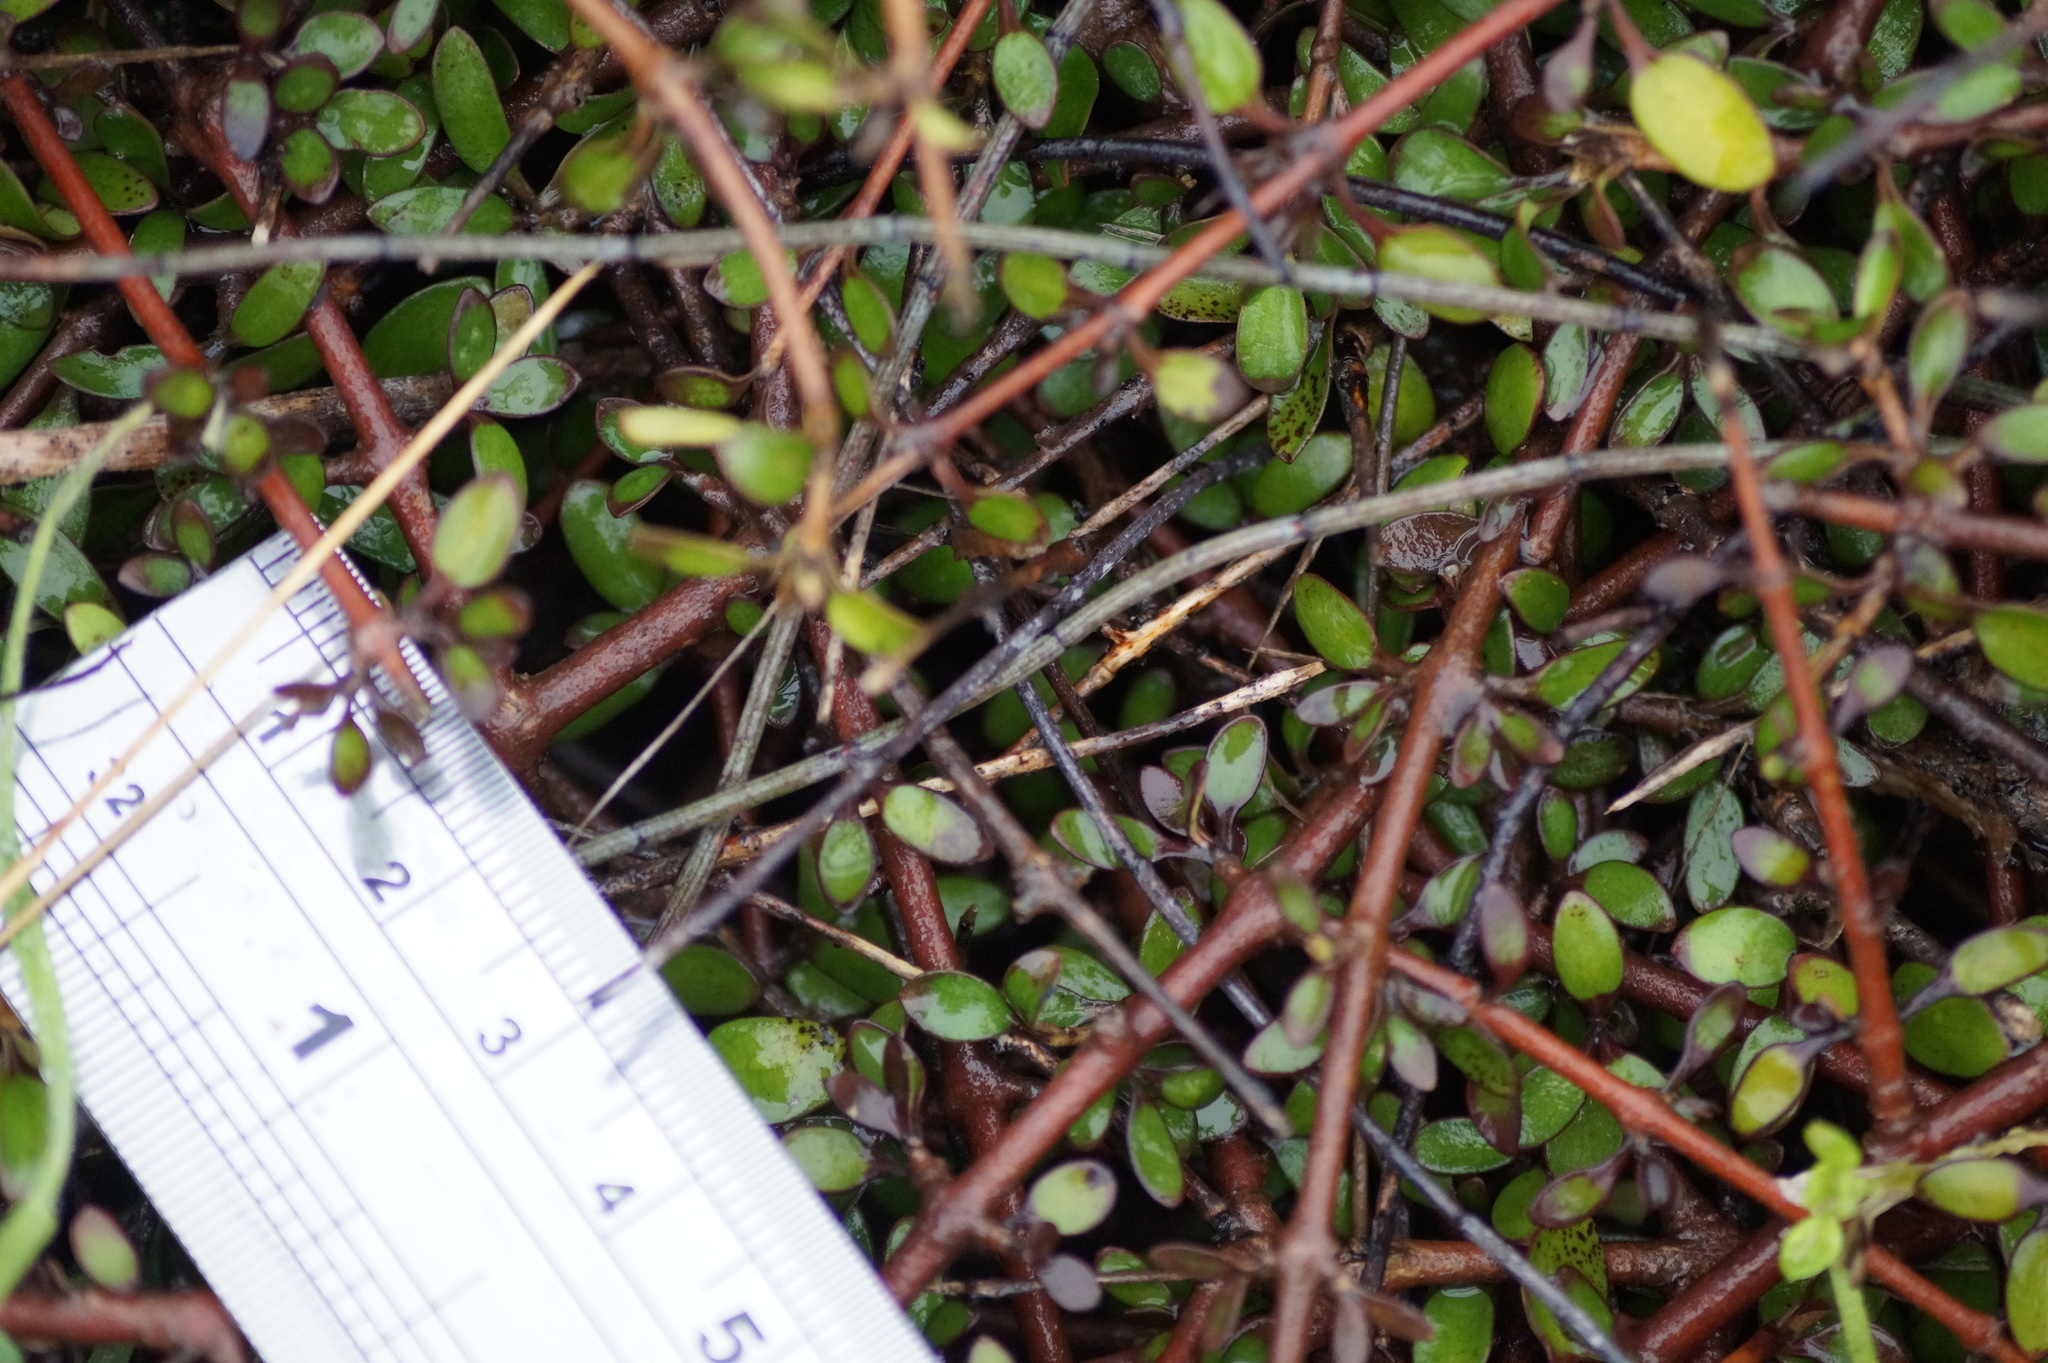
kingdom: Plantae
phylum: Tracheophyta
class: Magnoliopsida
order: Gentianales
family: Rubiaceae
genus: Coprosma
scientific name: Coprosma propinqua
